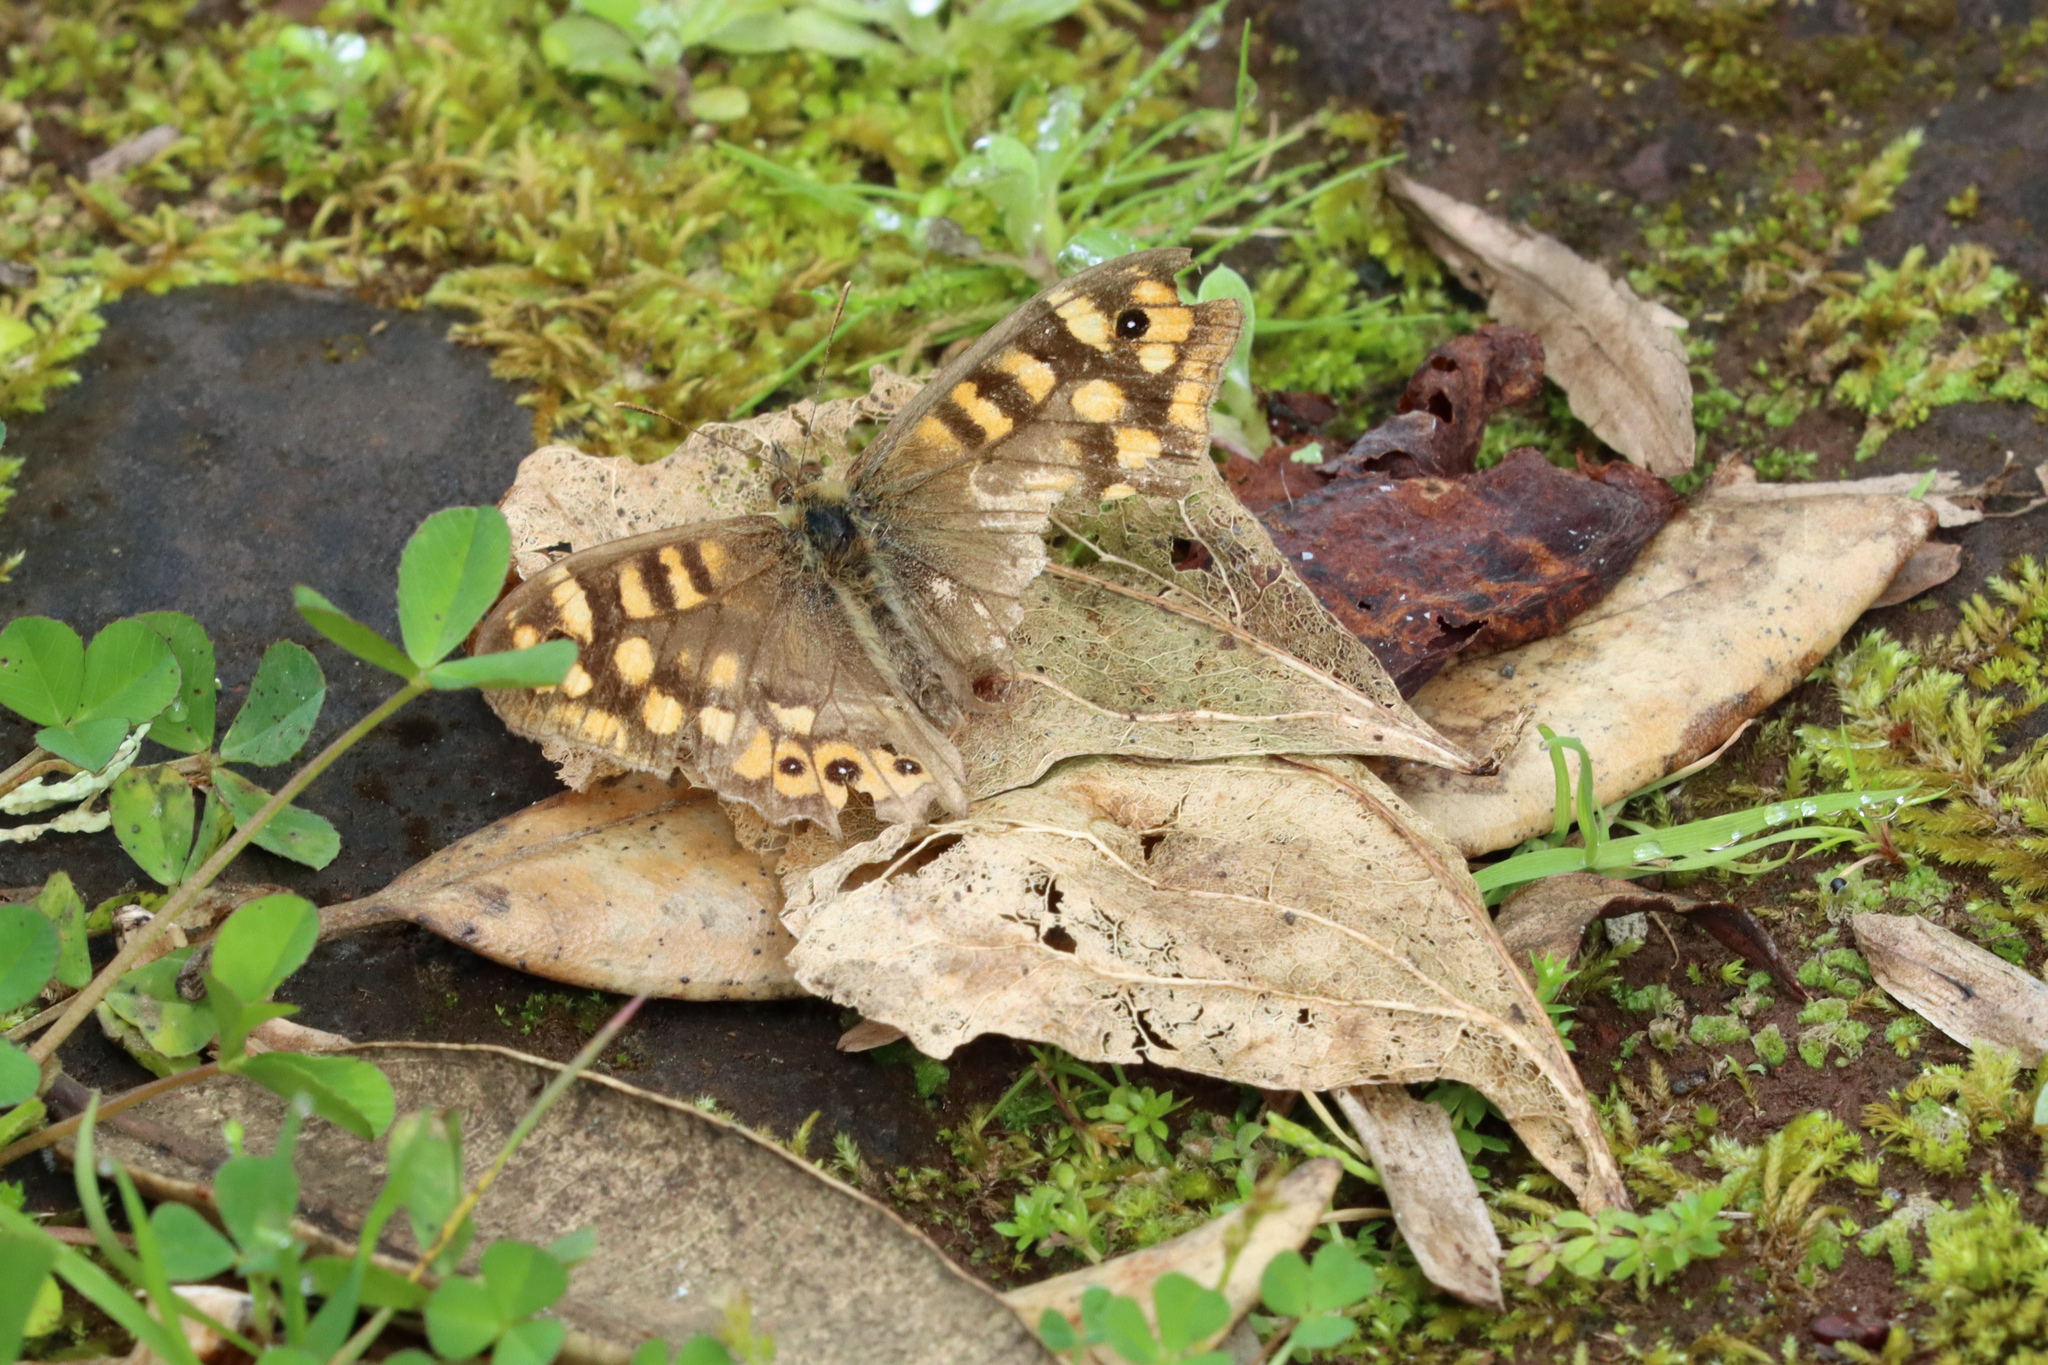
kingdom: Animalia
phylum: Arthropoda
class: Insecta
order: Lepidoptera
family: Nymphalidae
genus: Pararge
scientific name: Pararge aegeria
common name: Speckled wood
